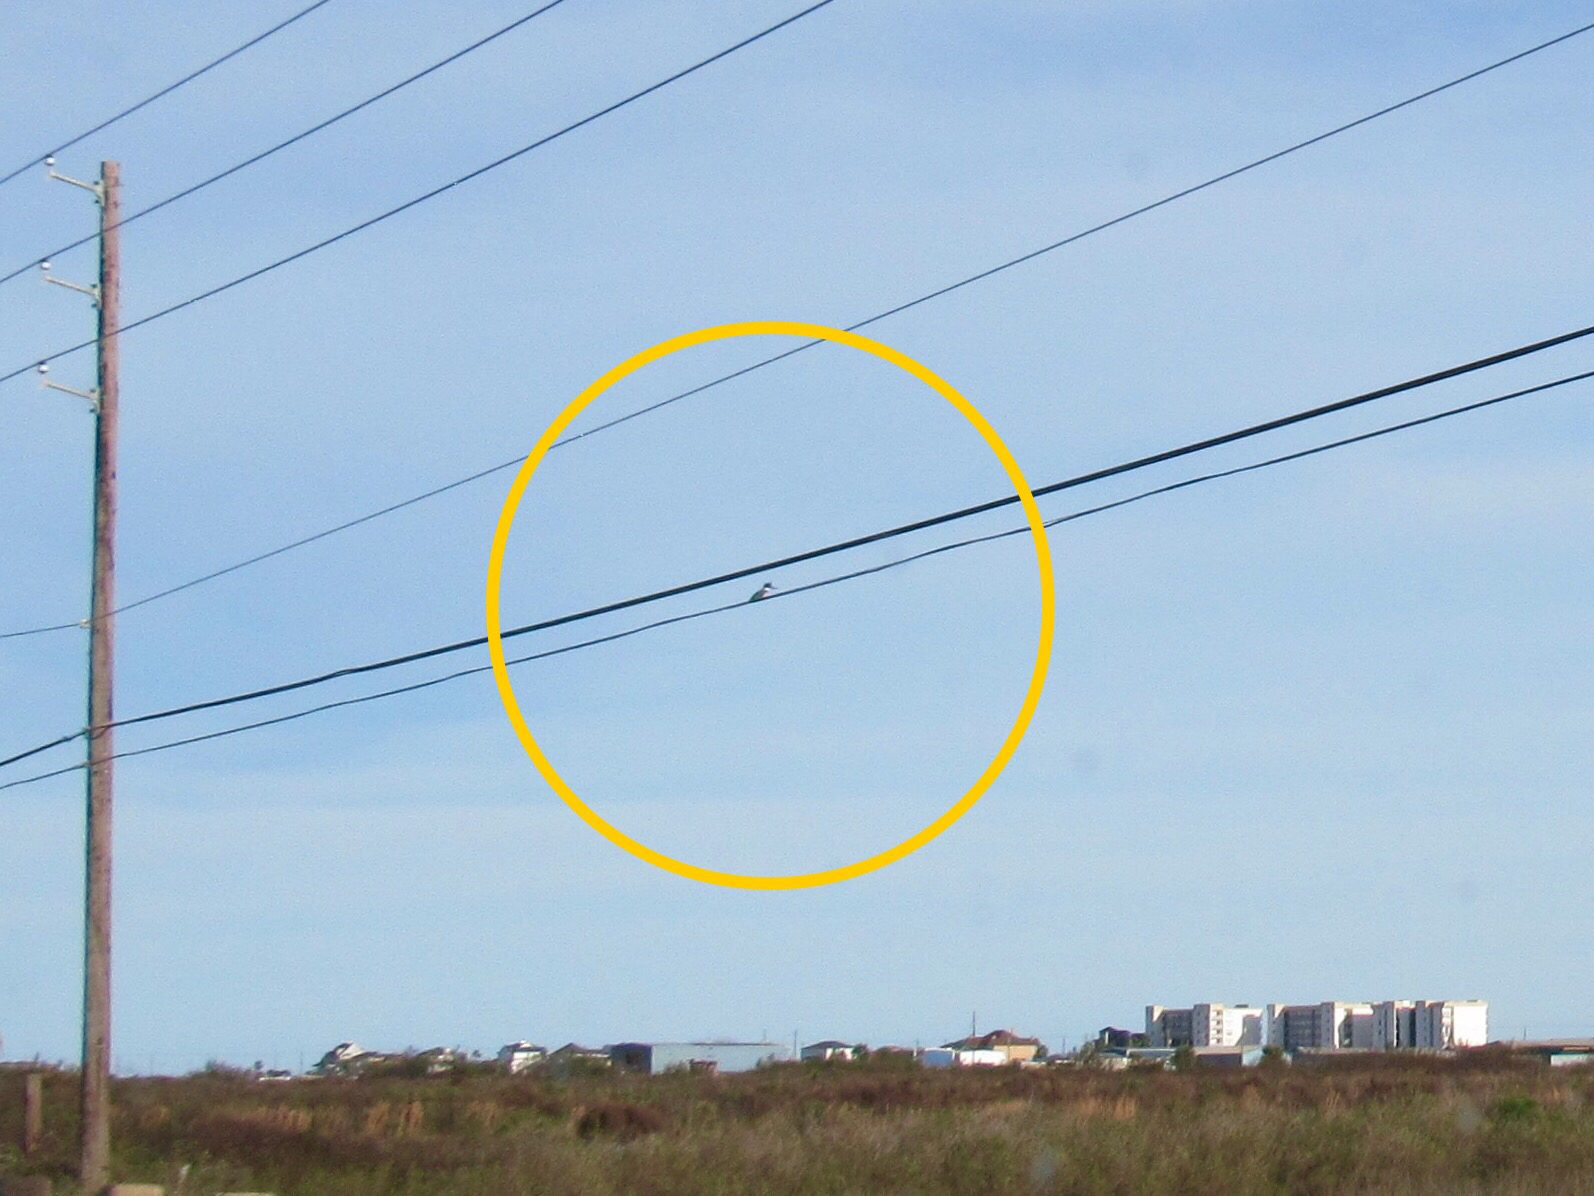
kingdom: Animalia
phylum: Chordata
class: Aves
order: Coraciiformes
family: Alcedinidae
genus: Megaceryle
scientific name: Megaceryle alcyon
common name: Belted kingfisher
